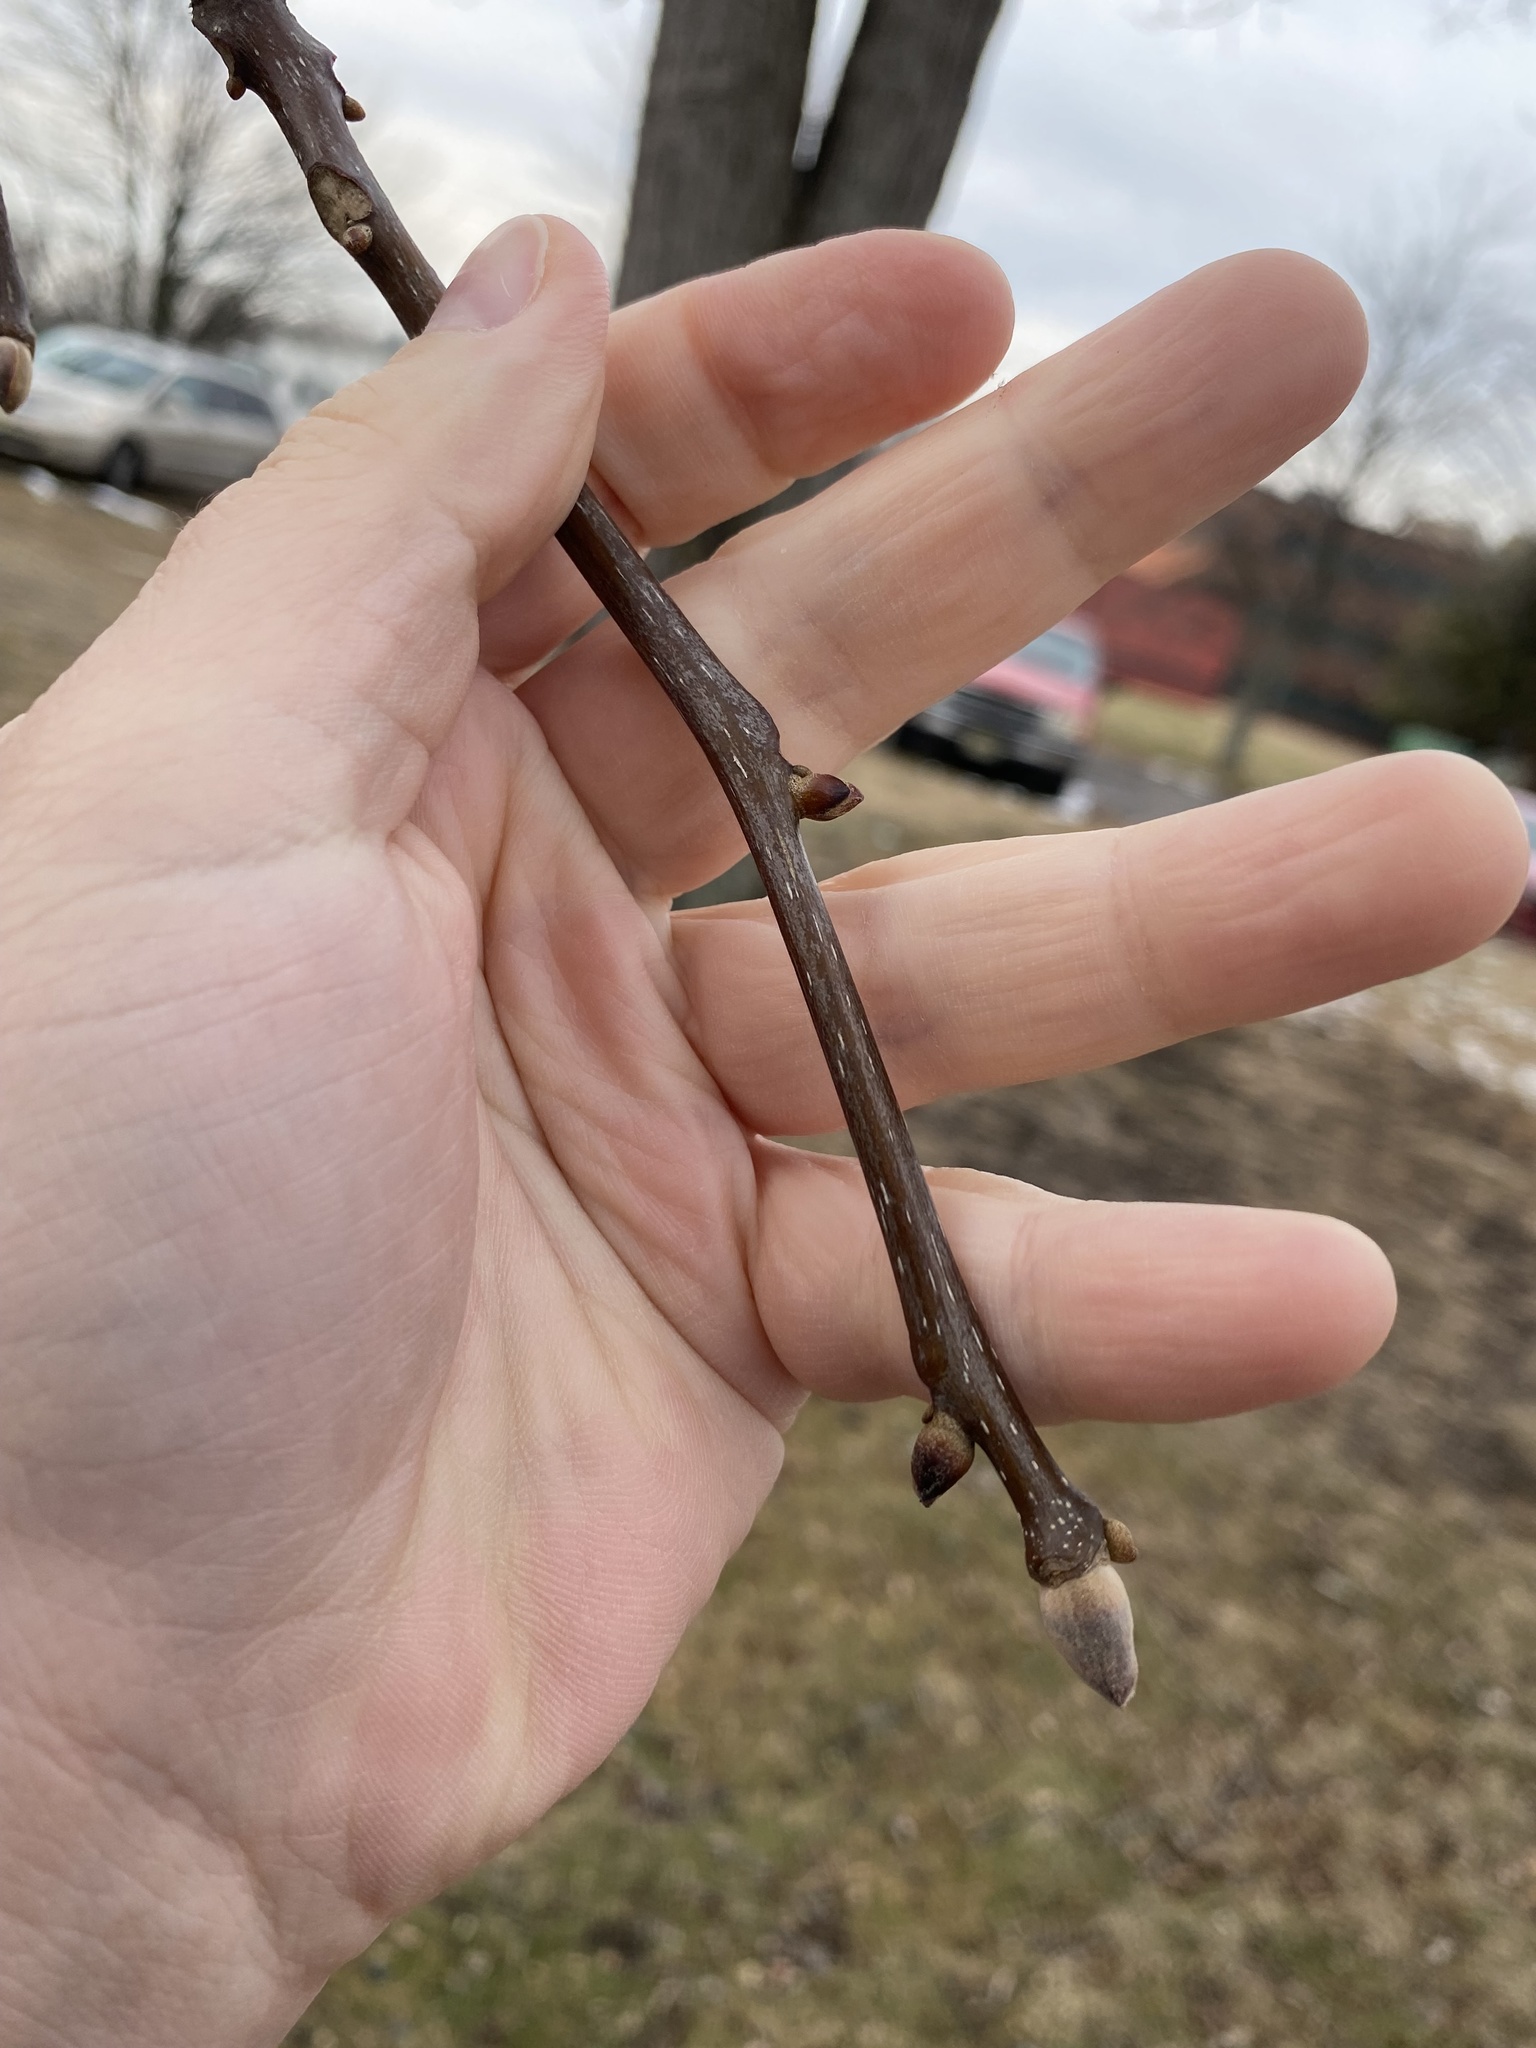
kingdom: Plantae
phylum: Tracheophyta
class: Magnoliopsida
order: Fagales
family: Juglandaceae
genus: Carya
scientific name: Carya alba
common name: Mockernut hickory
